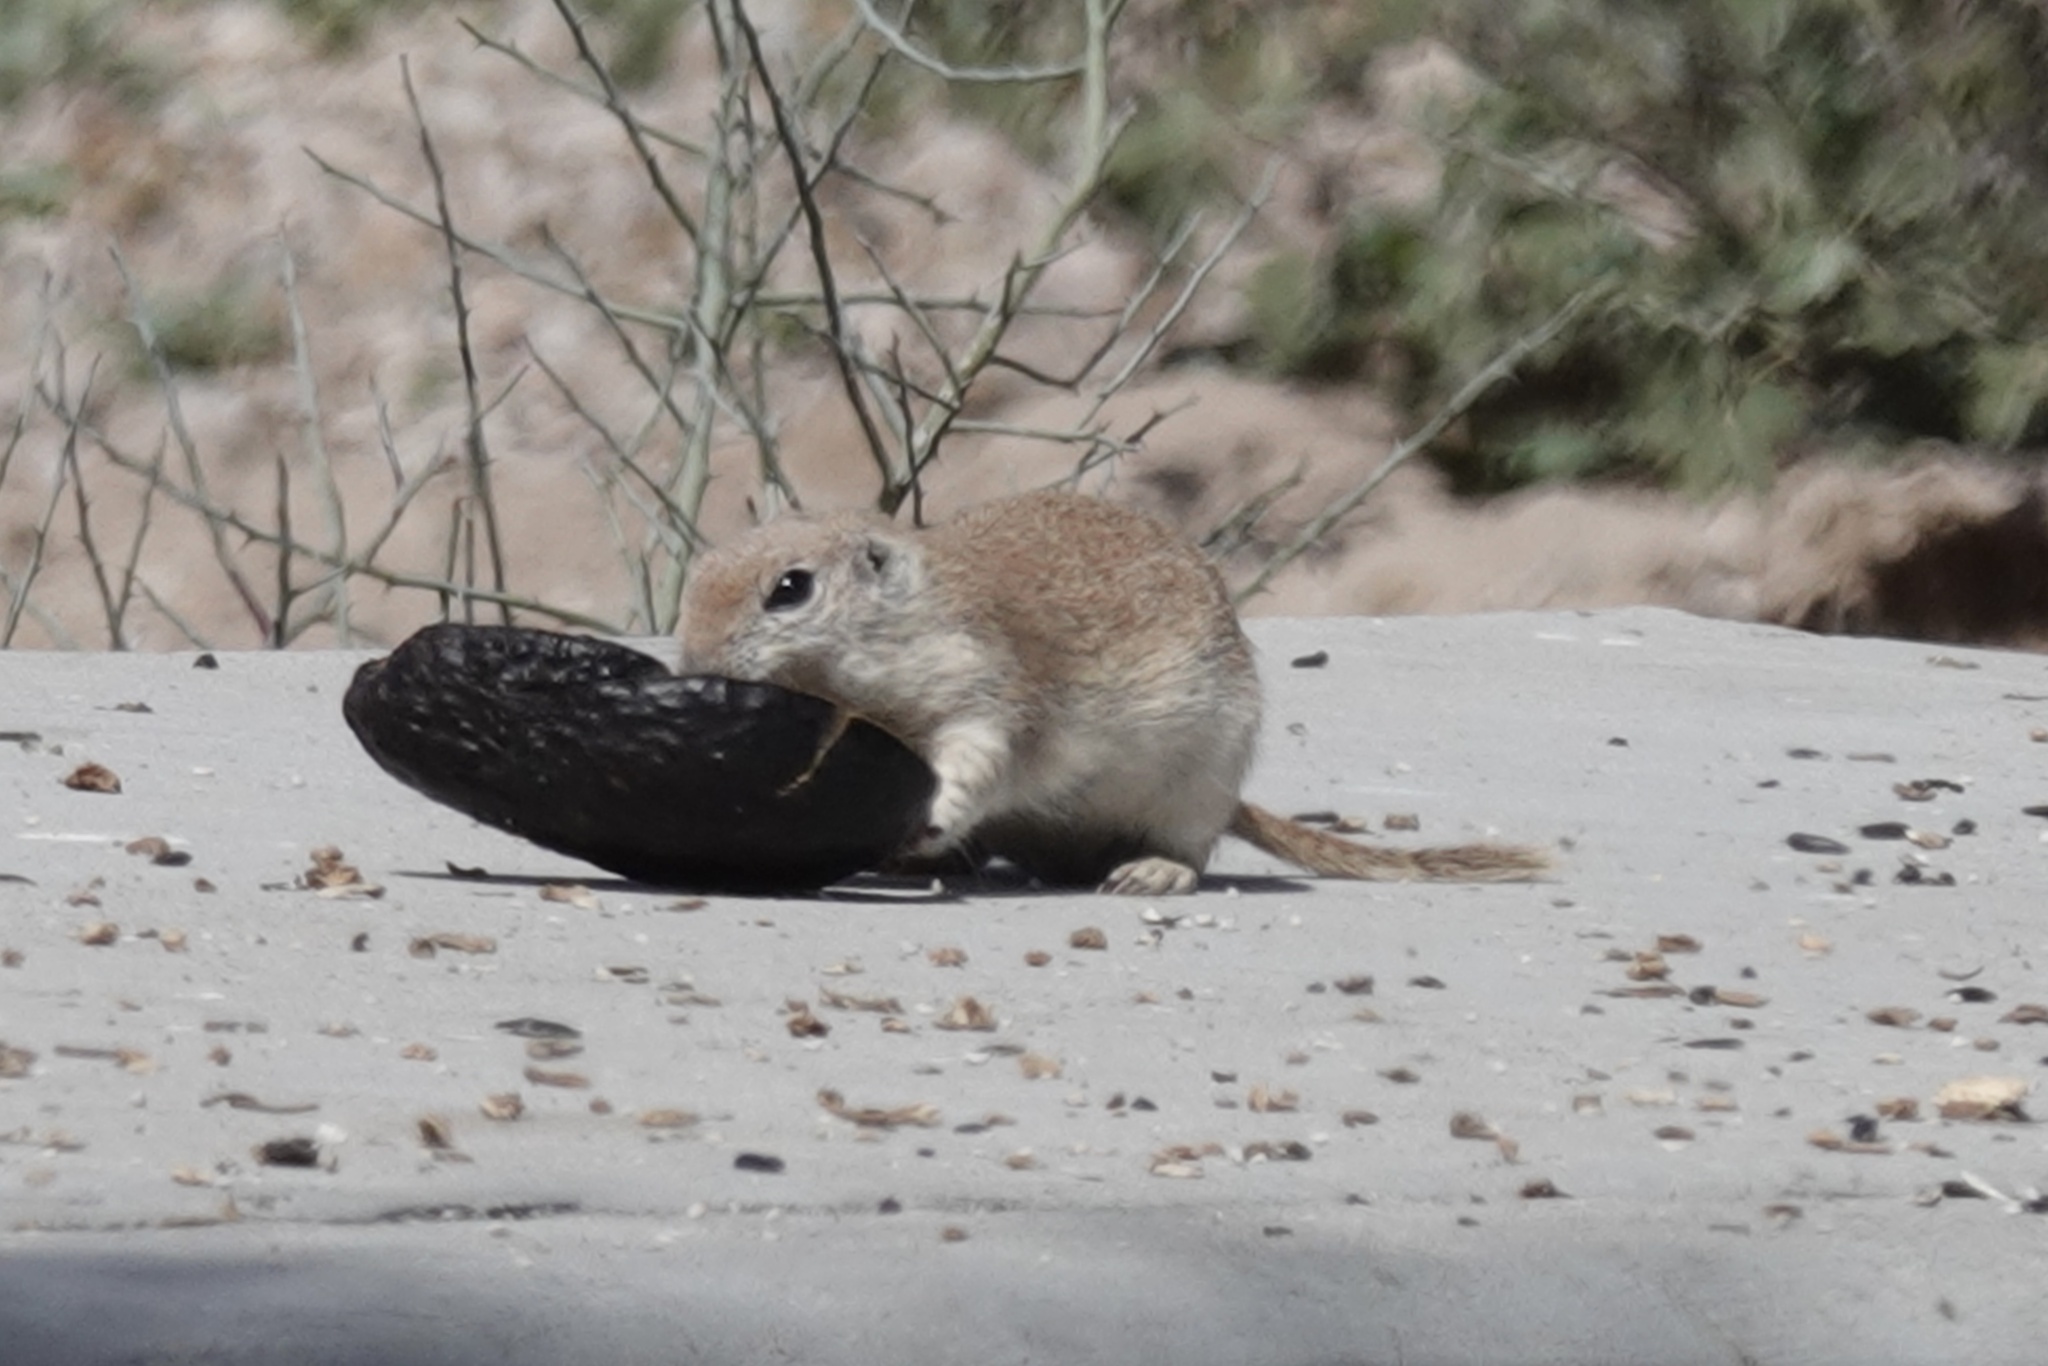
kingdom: Animalia
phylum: Chordata
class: Mammalia
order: Rodentia
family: Sciuridae
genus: Xerospermophilus
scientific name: Xerospermophilus tereticaudus
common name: Round-tailed ground squirrel
